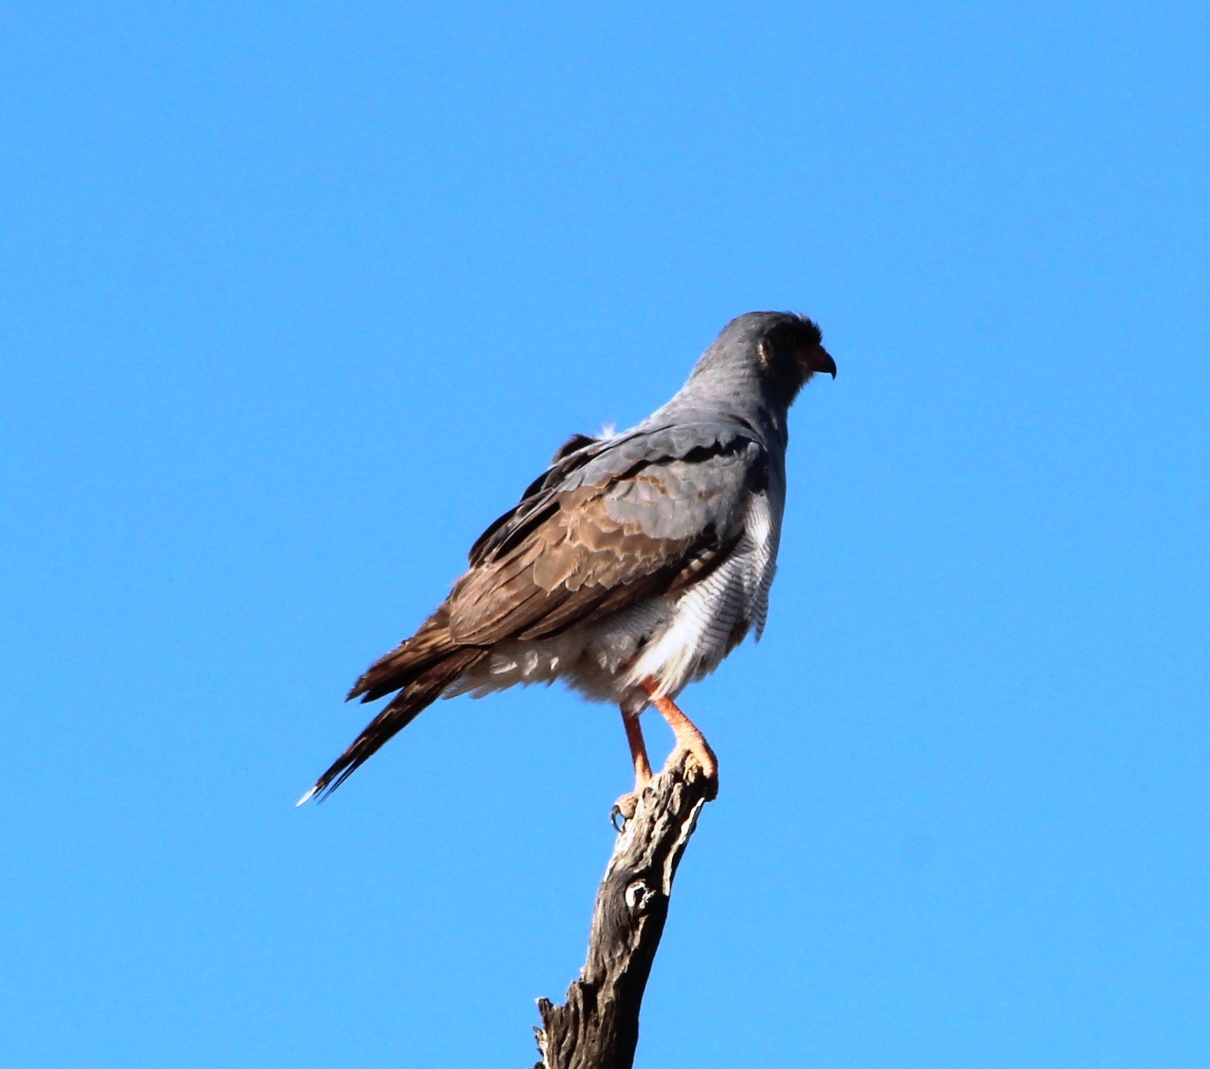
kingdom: Animalia
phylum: Chordata
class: Aves
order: Accipitriformes
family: Accipitridae
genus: Melierax
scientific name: Melierax canorus
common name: Pale chanting-goshawk
